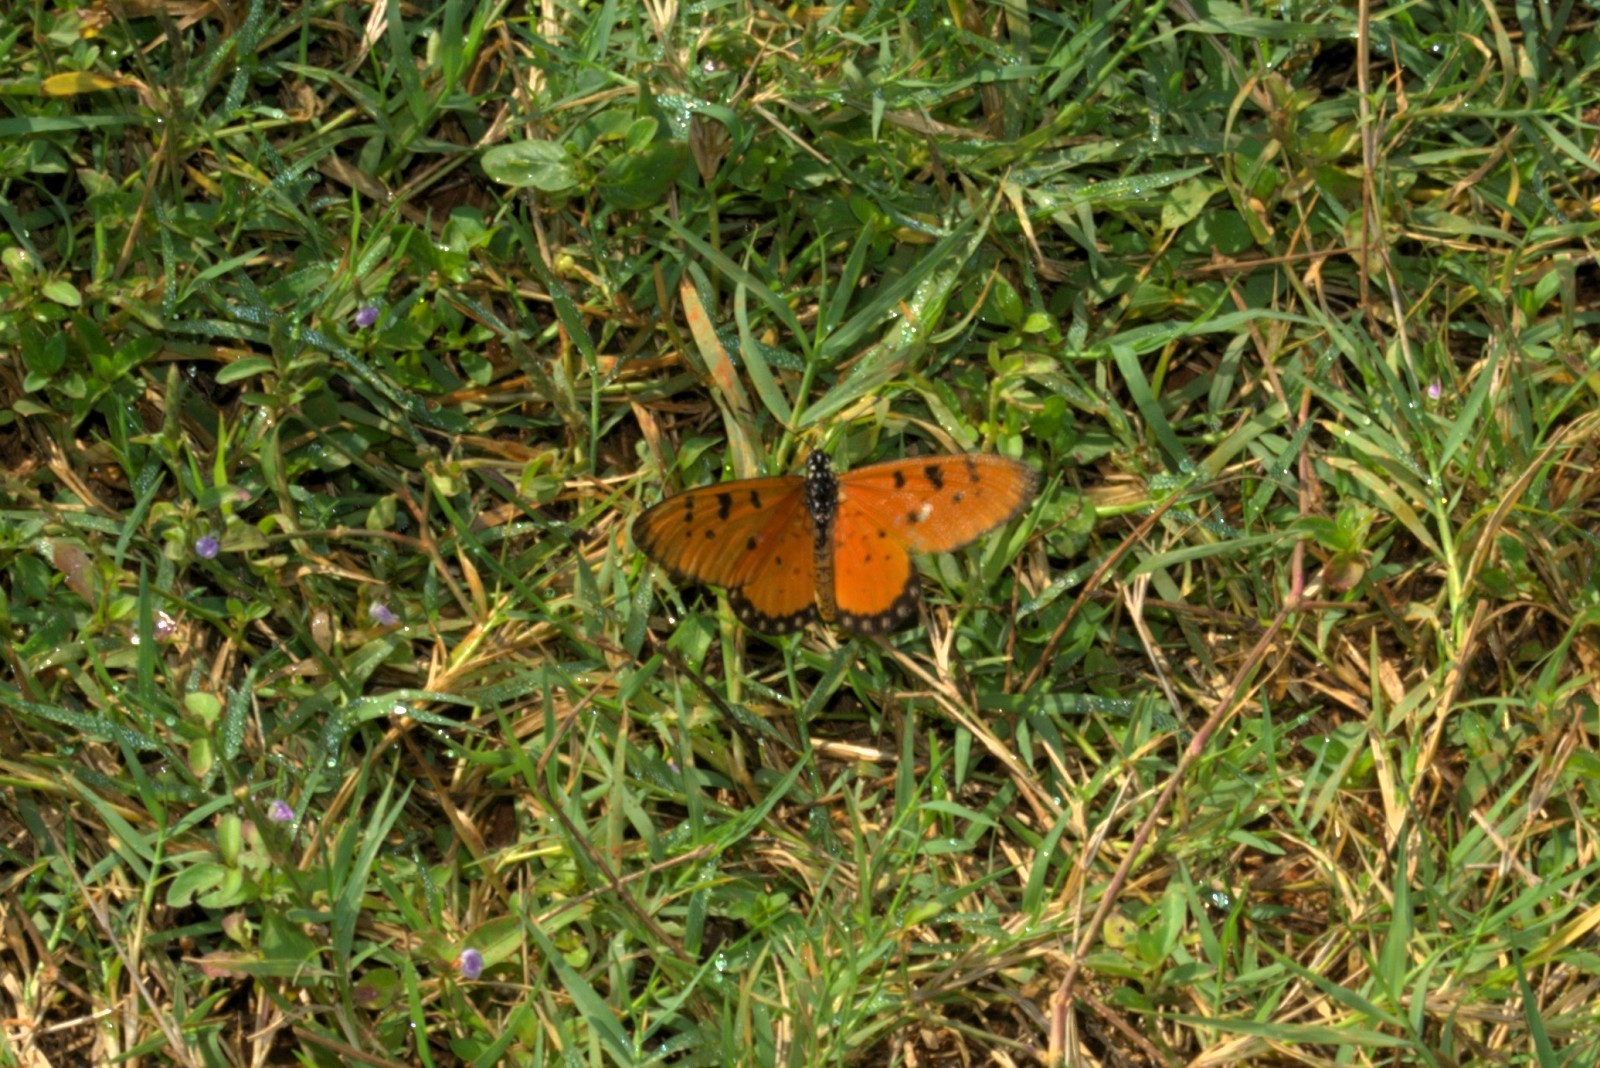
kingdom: Animalia
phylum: Arthropoda
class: Insecta
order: Lepidoptera
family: Nymphalidae
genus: Acraea
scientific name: Acraea terpsicore
